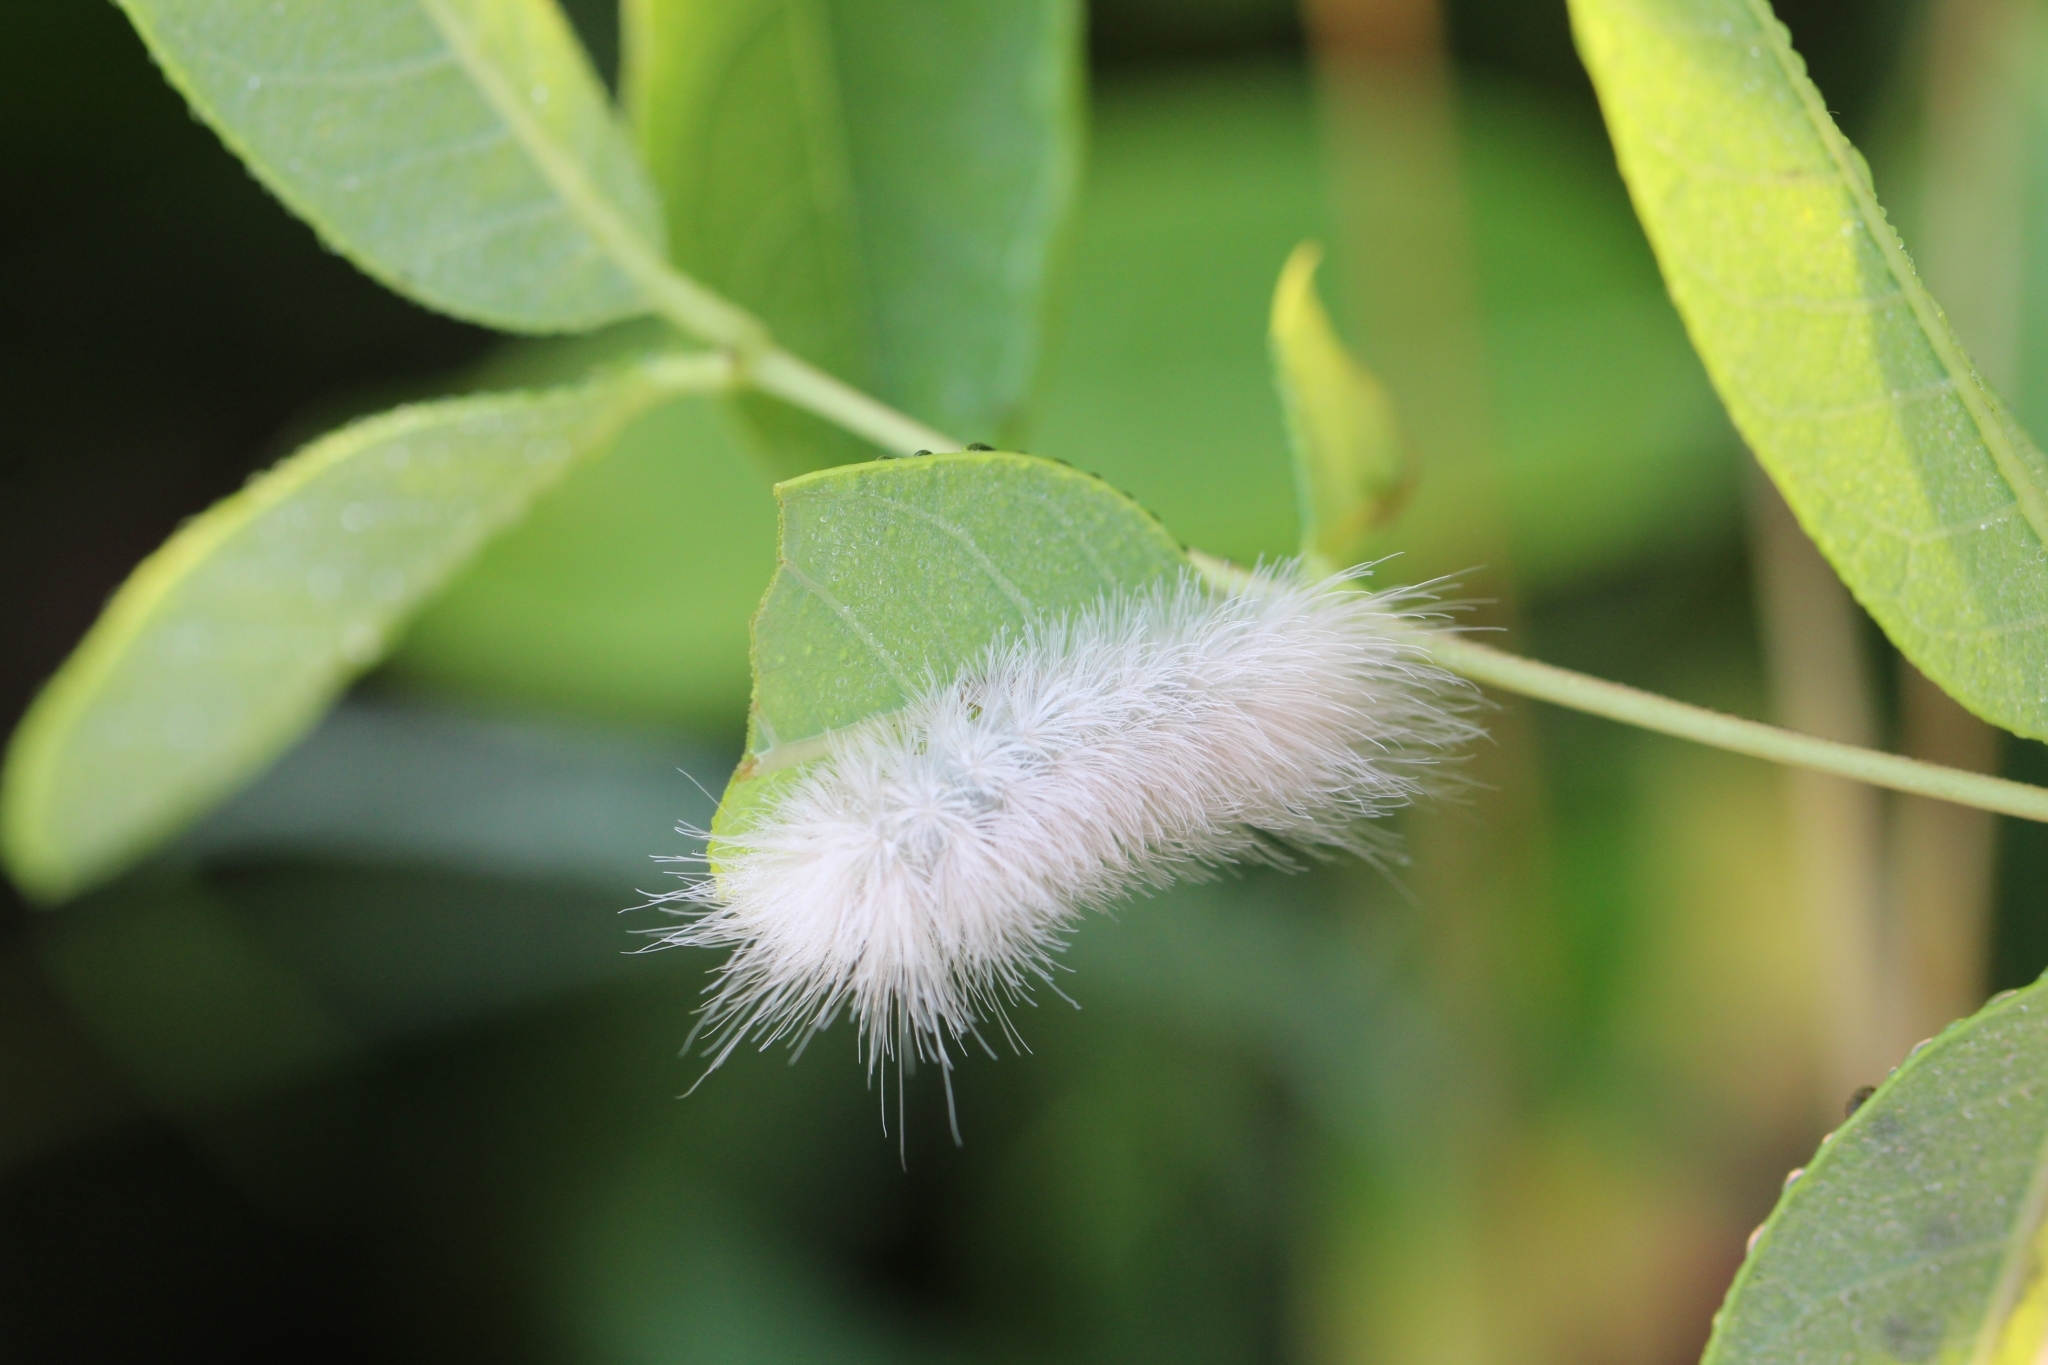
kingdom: Animalia
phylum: Arthropoda
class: Insecta
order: Lepidoptera
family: Erebidae
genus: Cycnia
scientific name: Cycnia tenera
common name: Delicate cycnia moth
